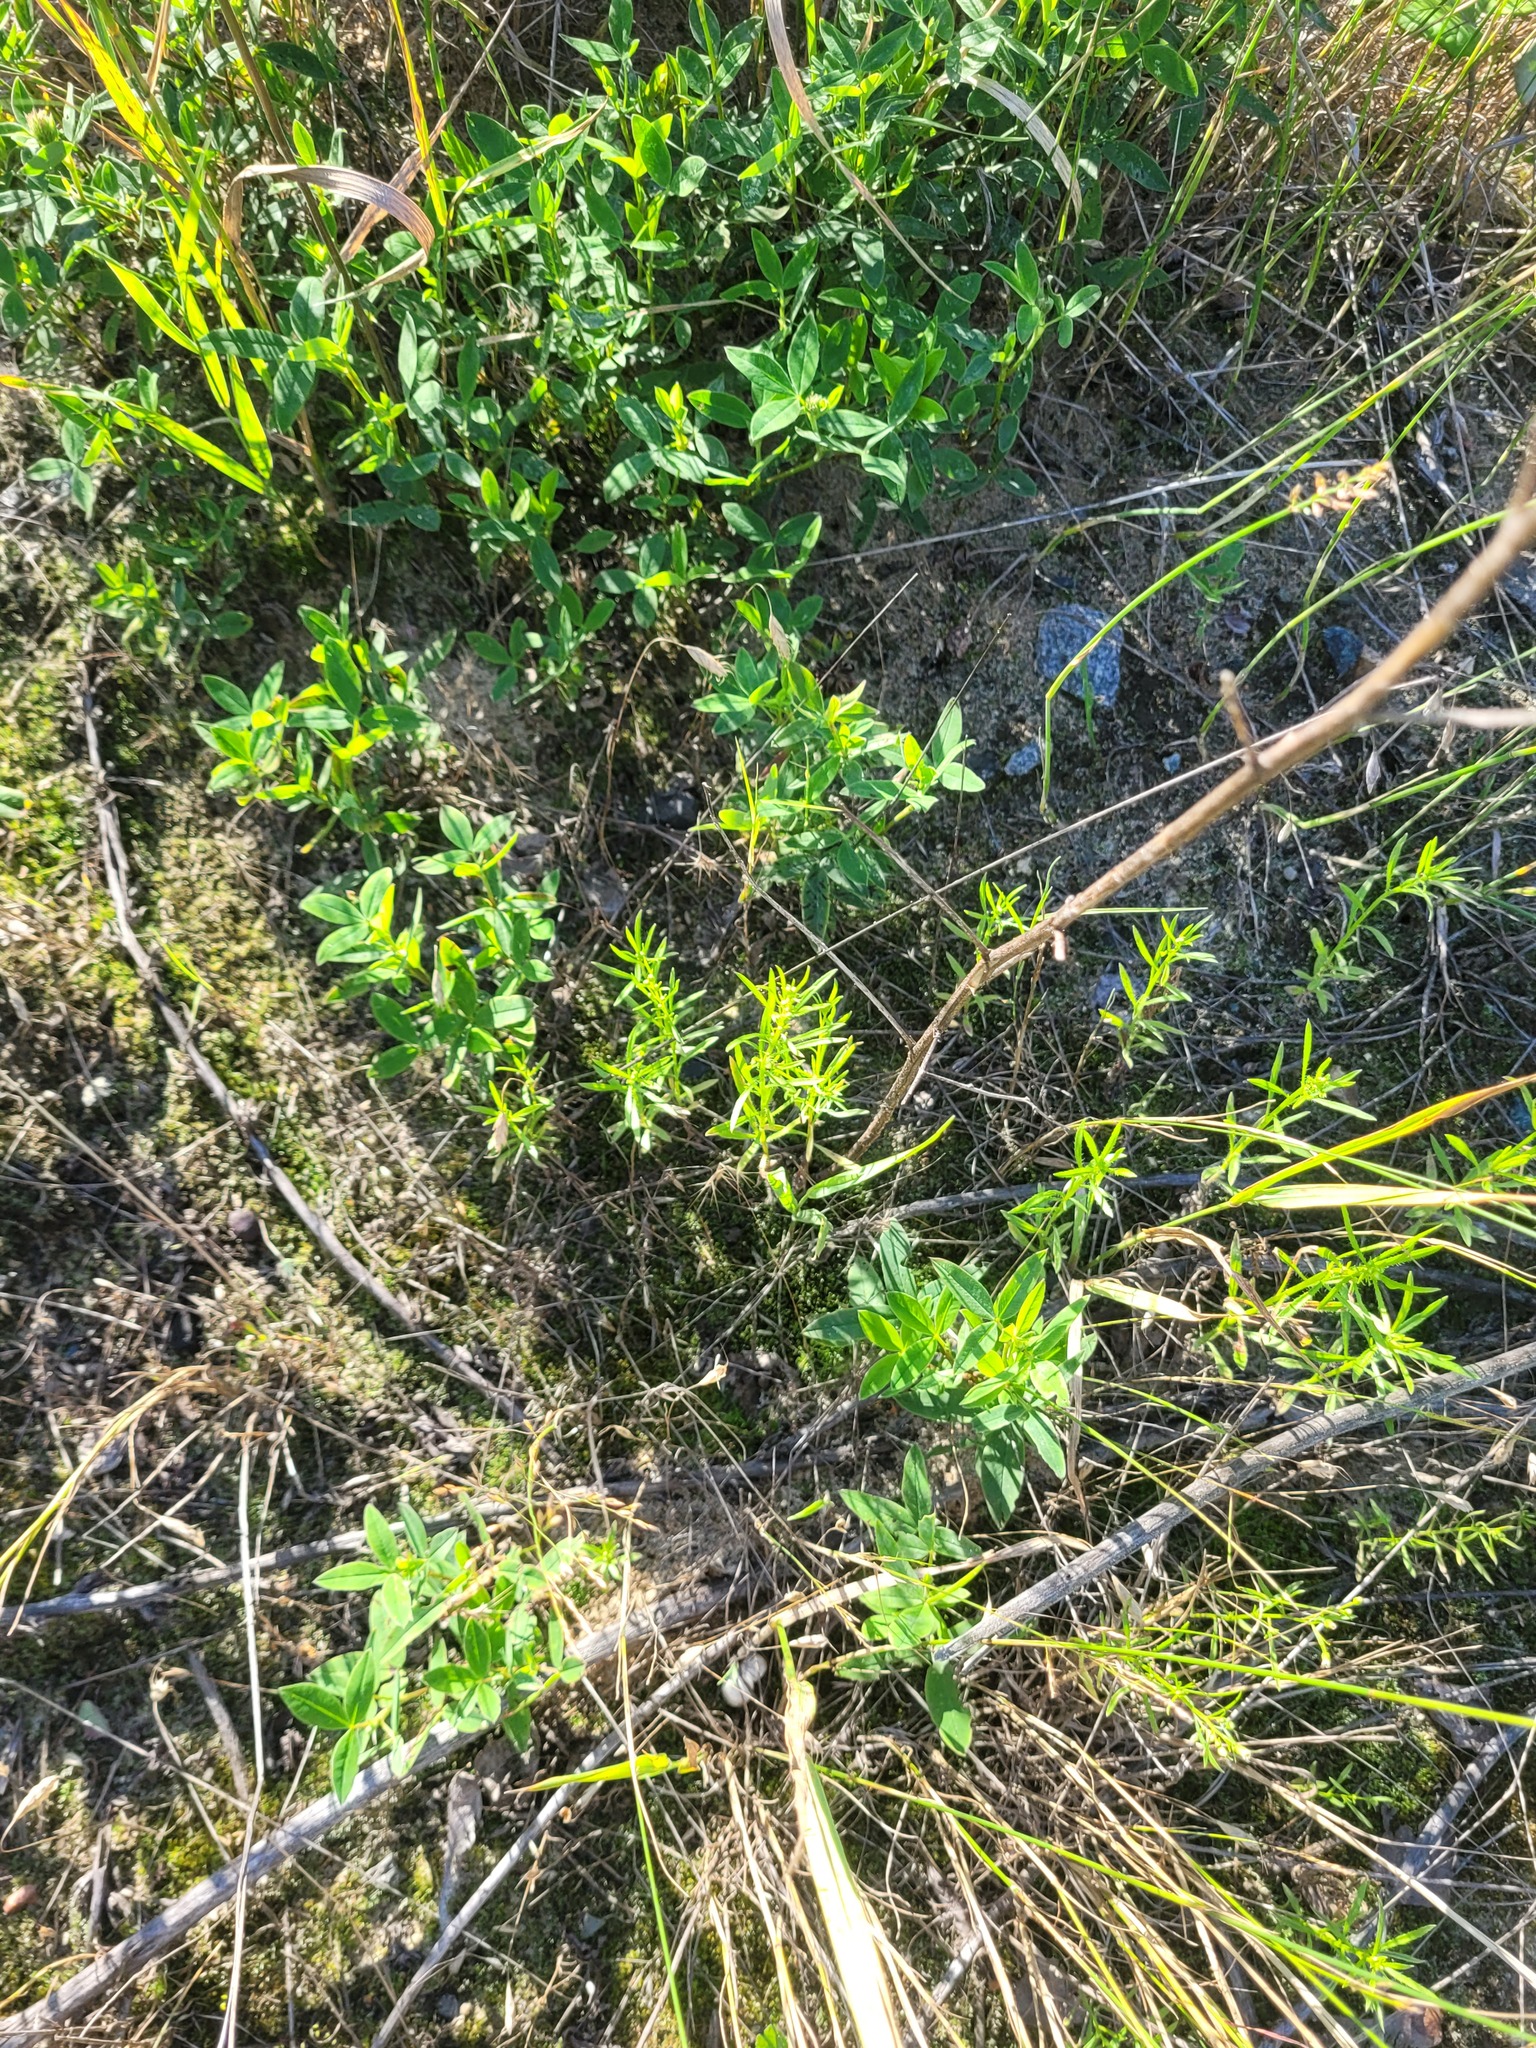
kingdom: Plantae
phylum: Tracheophyta
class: Magnoliopsida
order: Asterales
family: Asteraceae
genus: Erigeron
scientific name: Erigeron canadensis
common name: Canadian fleabane
